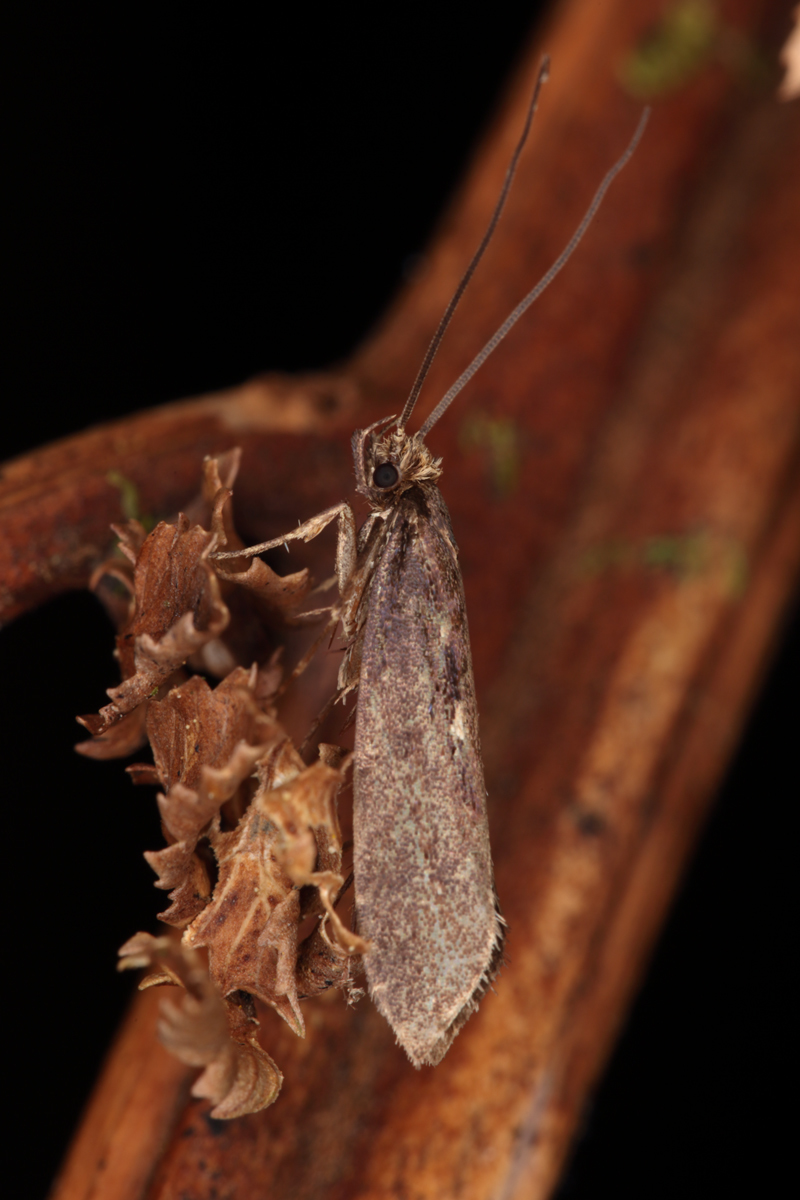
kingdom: Animalia
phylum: Arthropoda
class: Insecta
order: Lepidoptera
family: Tineidae
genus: Proterodesma
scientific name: Proterodesma chathamica
